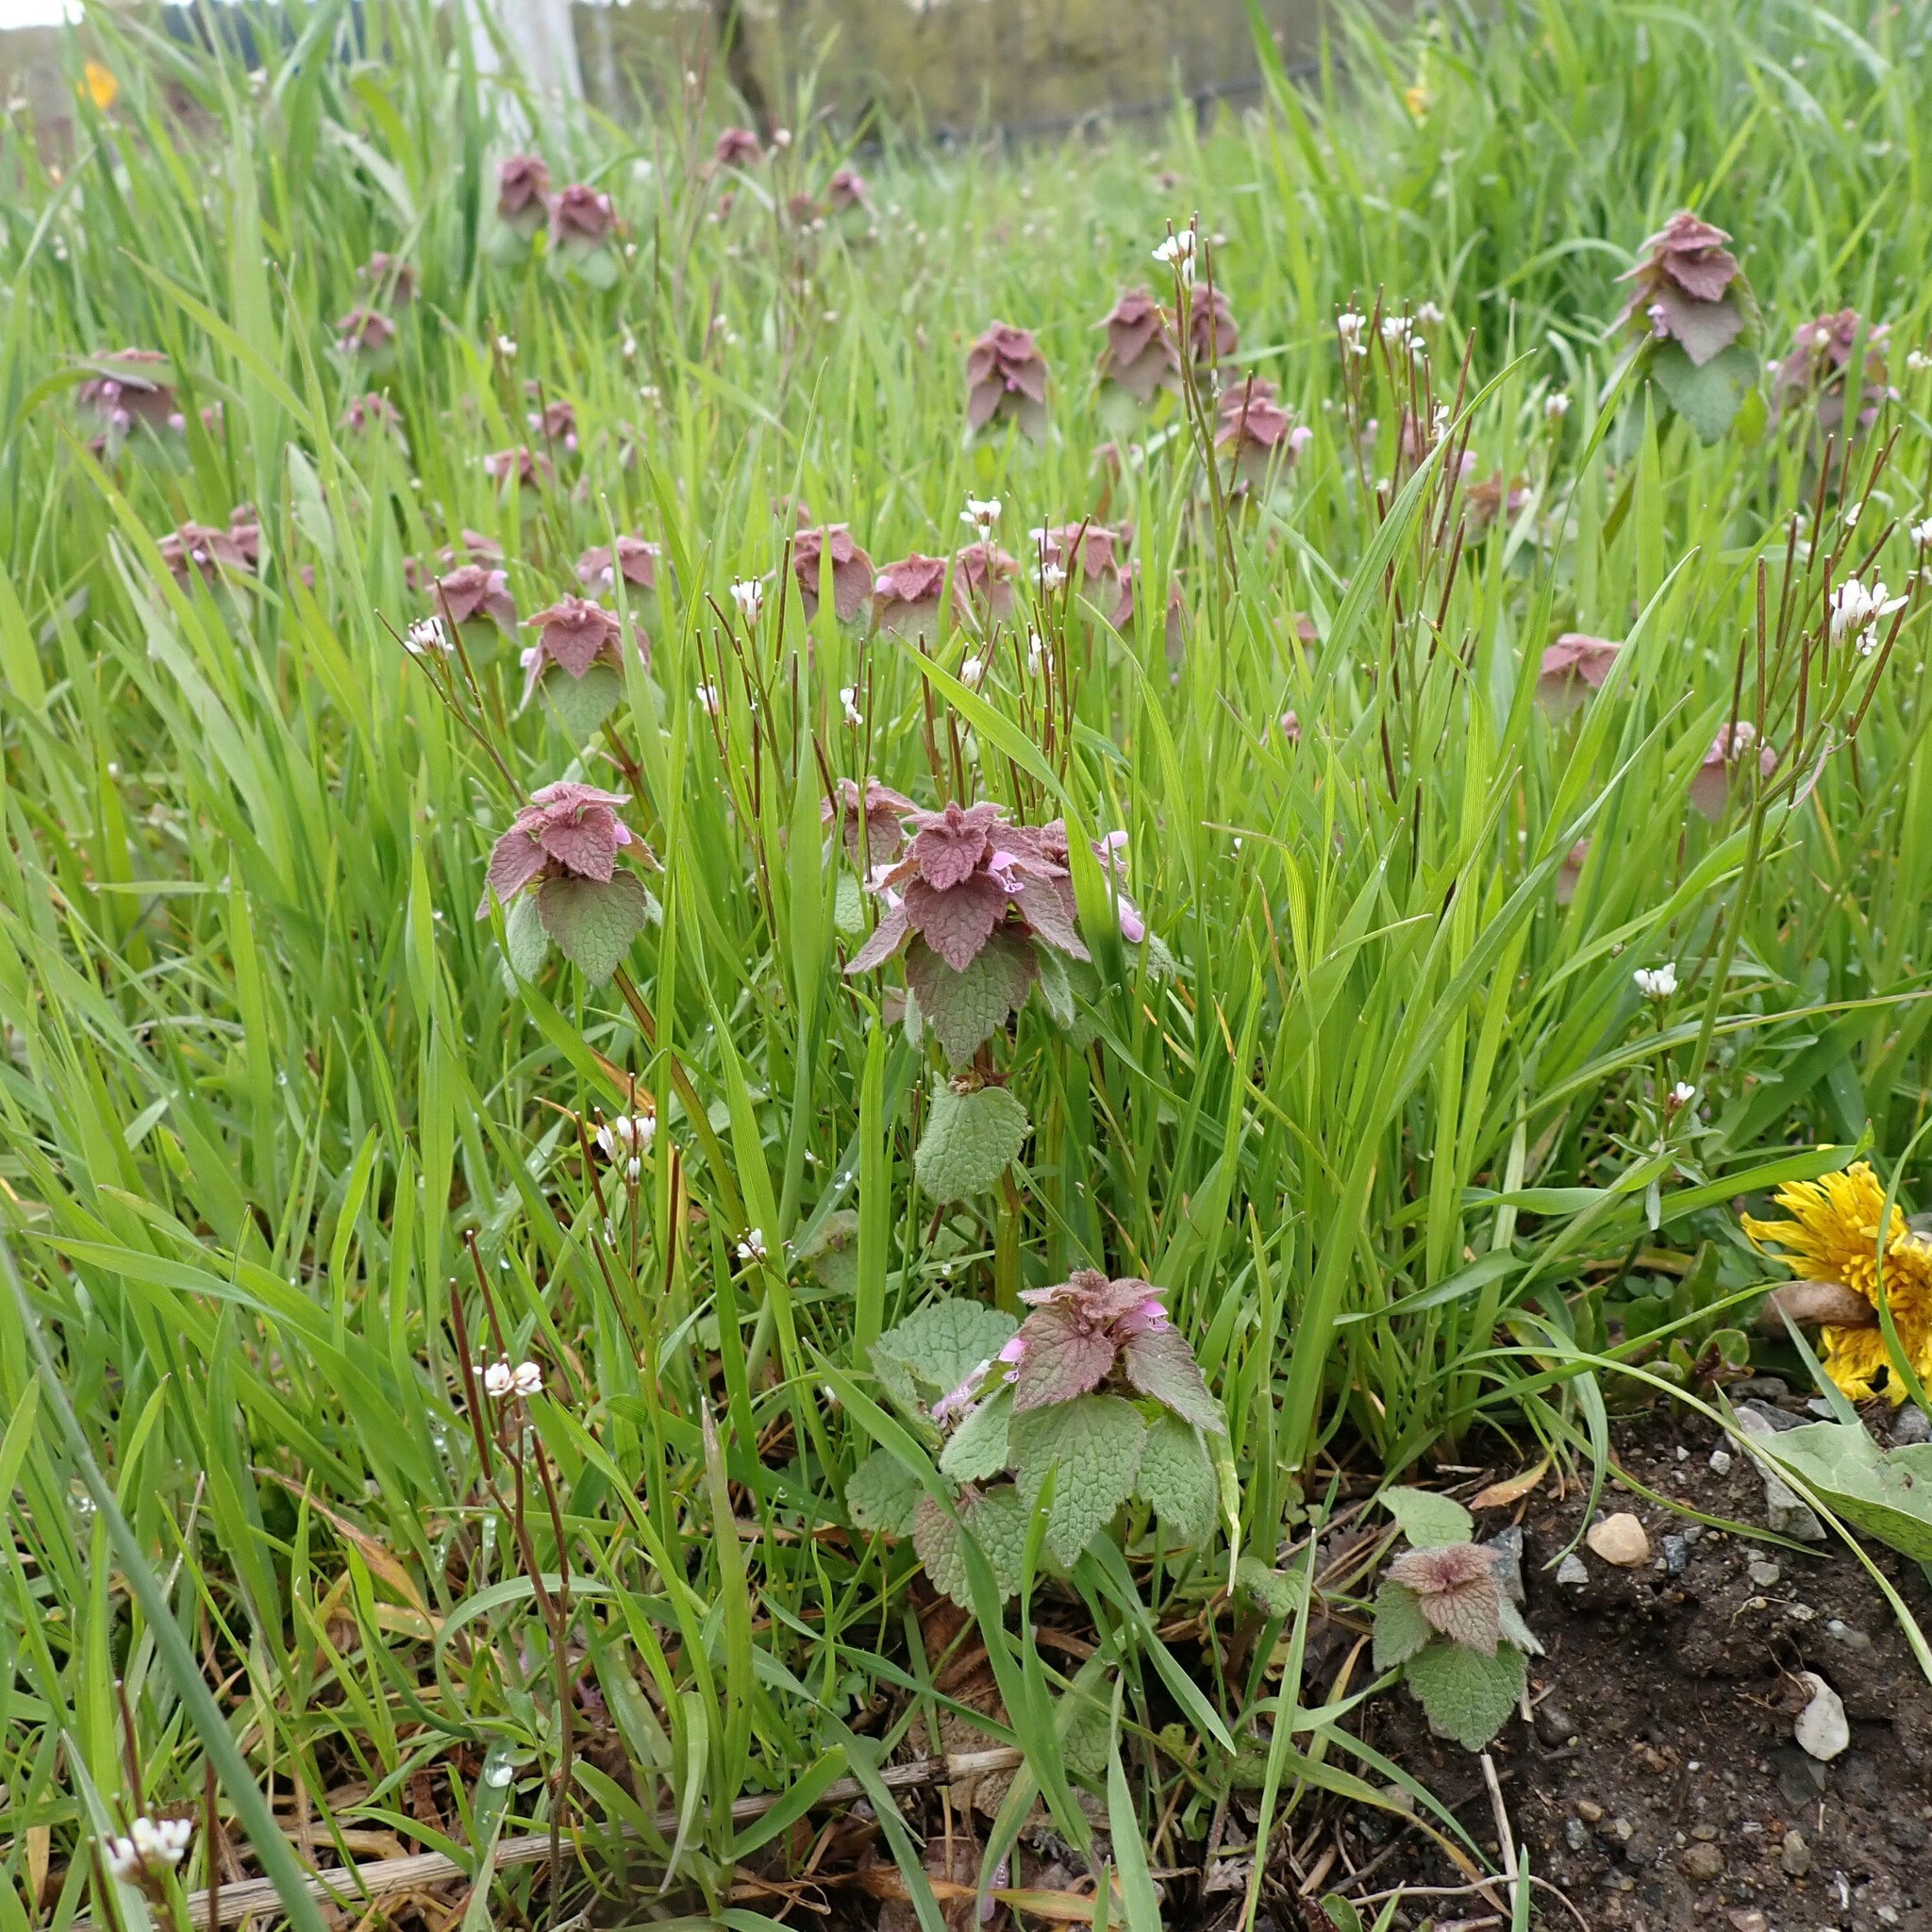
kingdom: Plantae
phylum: Tracheophyta
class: Magnoliopsida
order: Lamiales
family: Lamiaceae
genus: Lamium
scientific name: Lamium purpureum
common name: Red dead-nettle
